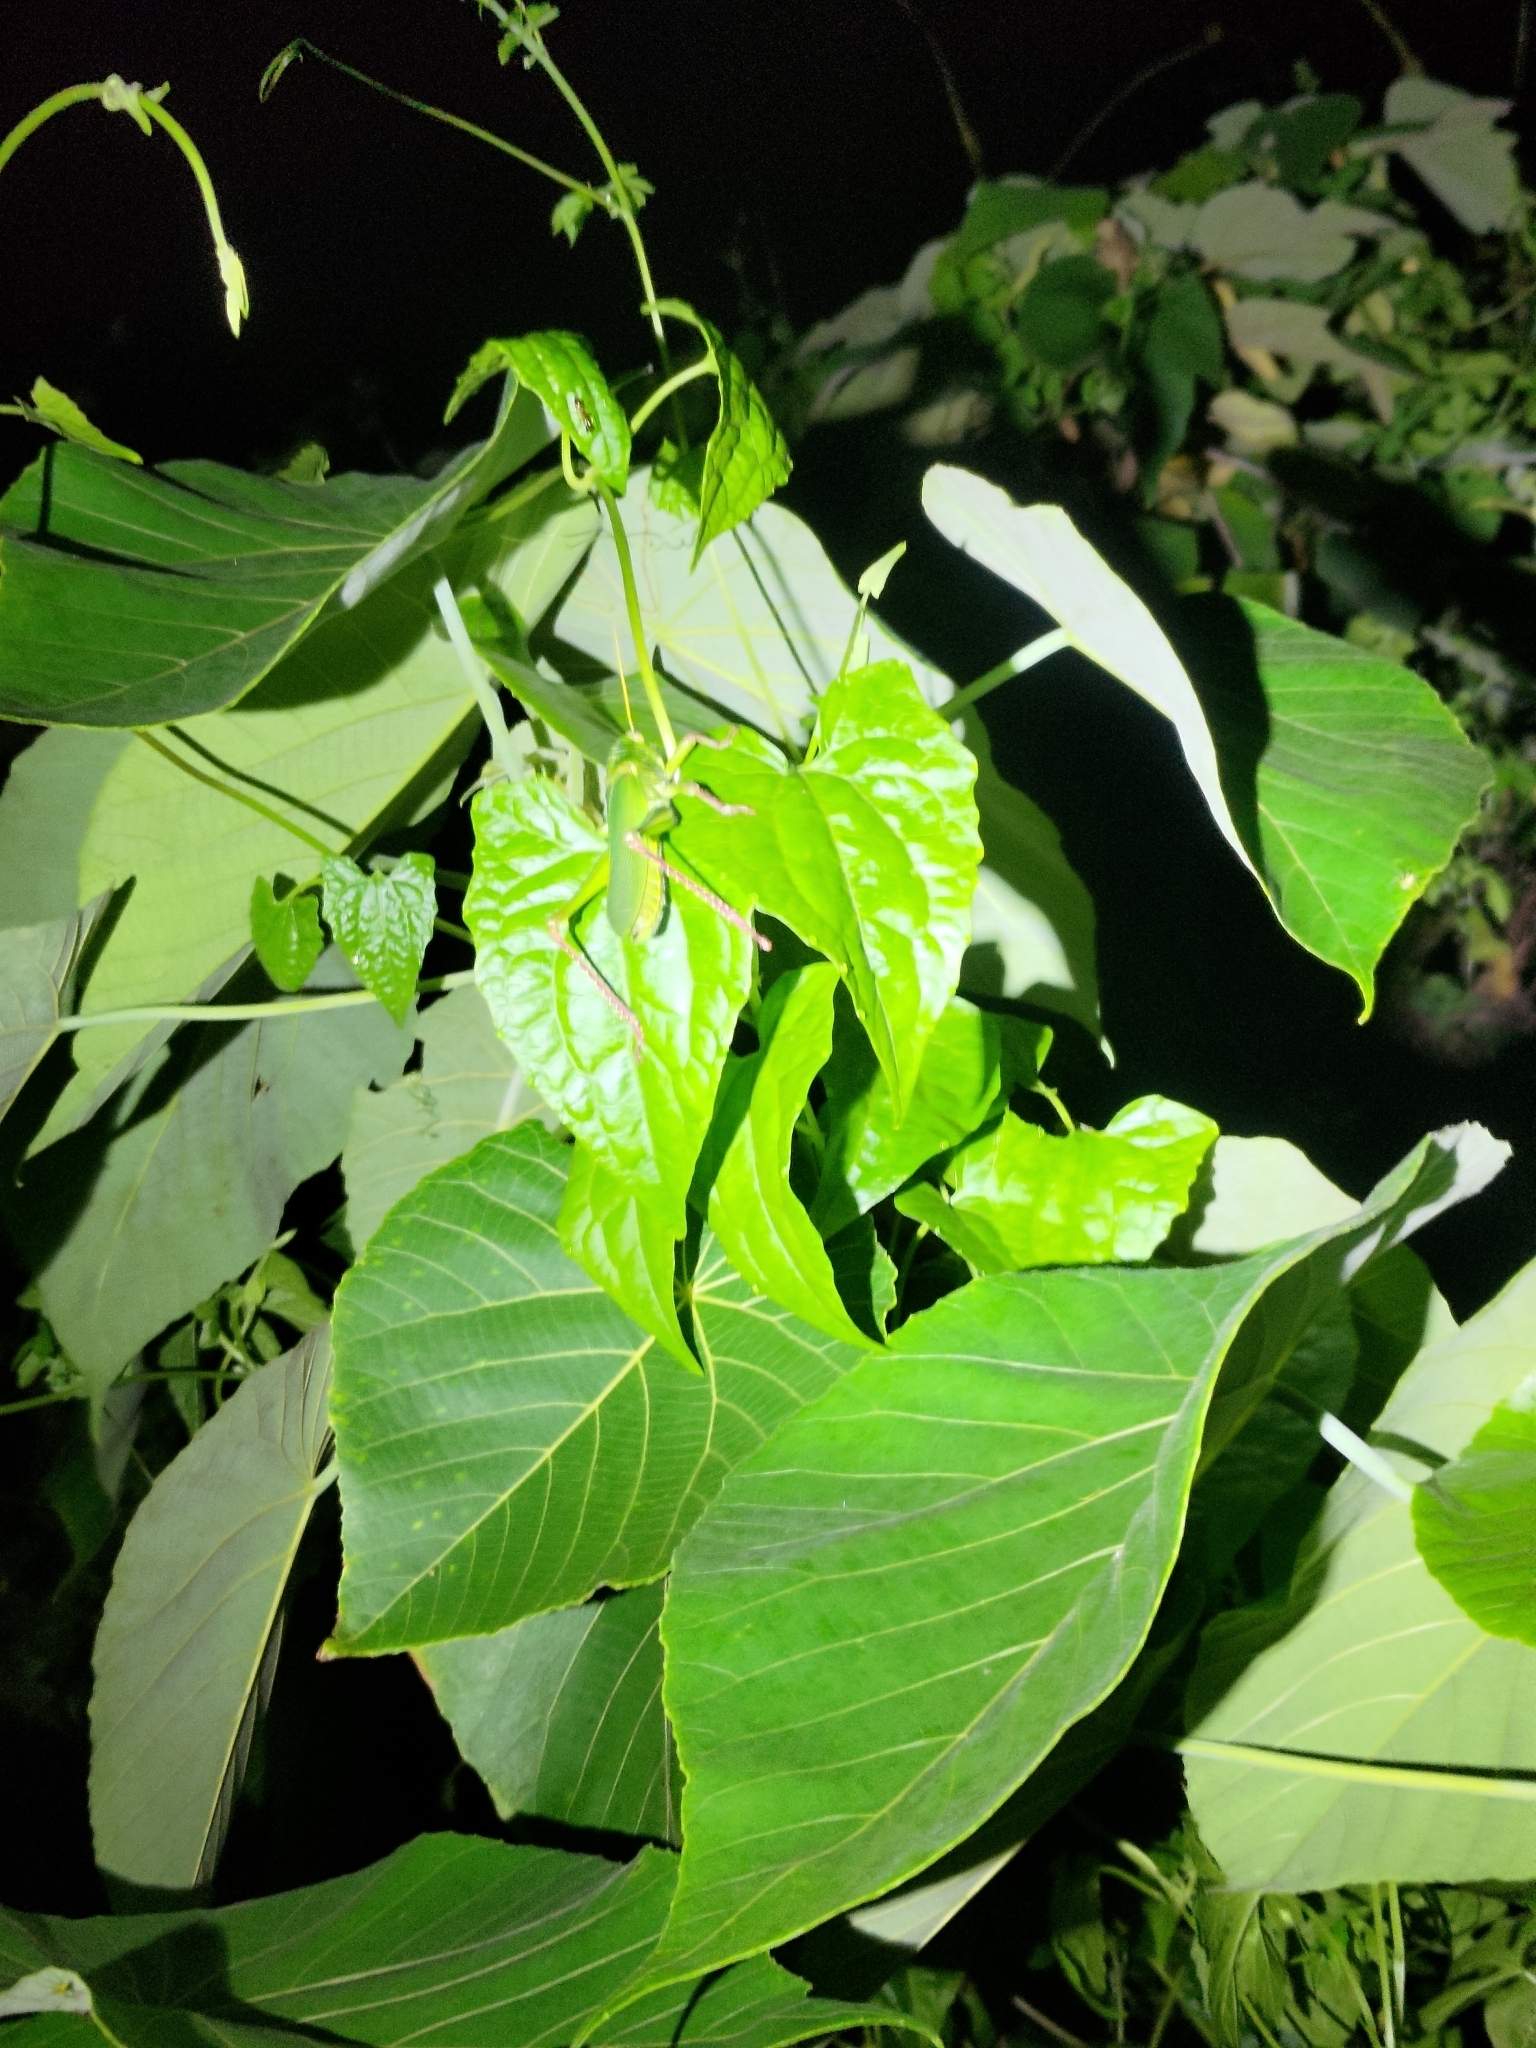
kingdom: Animalia
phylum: Arthropoda
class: Insecta
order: Orthoptera
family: Acrididae
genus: Chondracris
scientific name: Chondracris rosea
